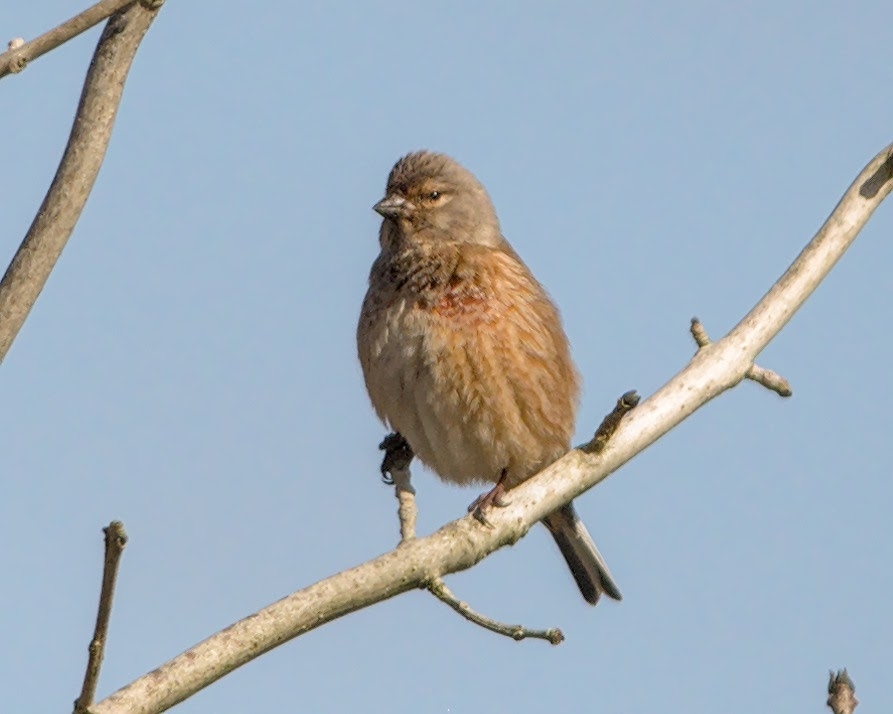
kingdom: Animalia
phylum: Chordata
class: Aves
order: Passeriformes
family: Fringillidae
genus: Linaria
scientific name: Linaria cannabina
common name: Common linnet
